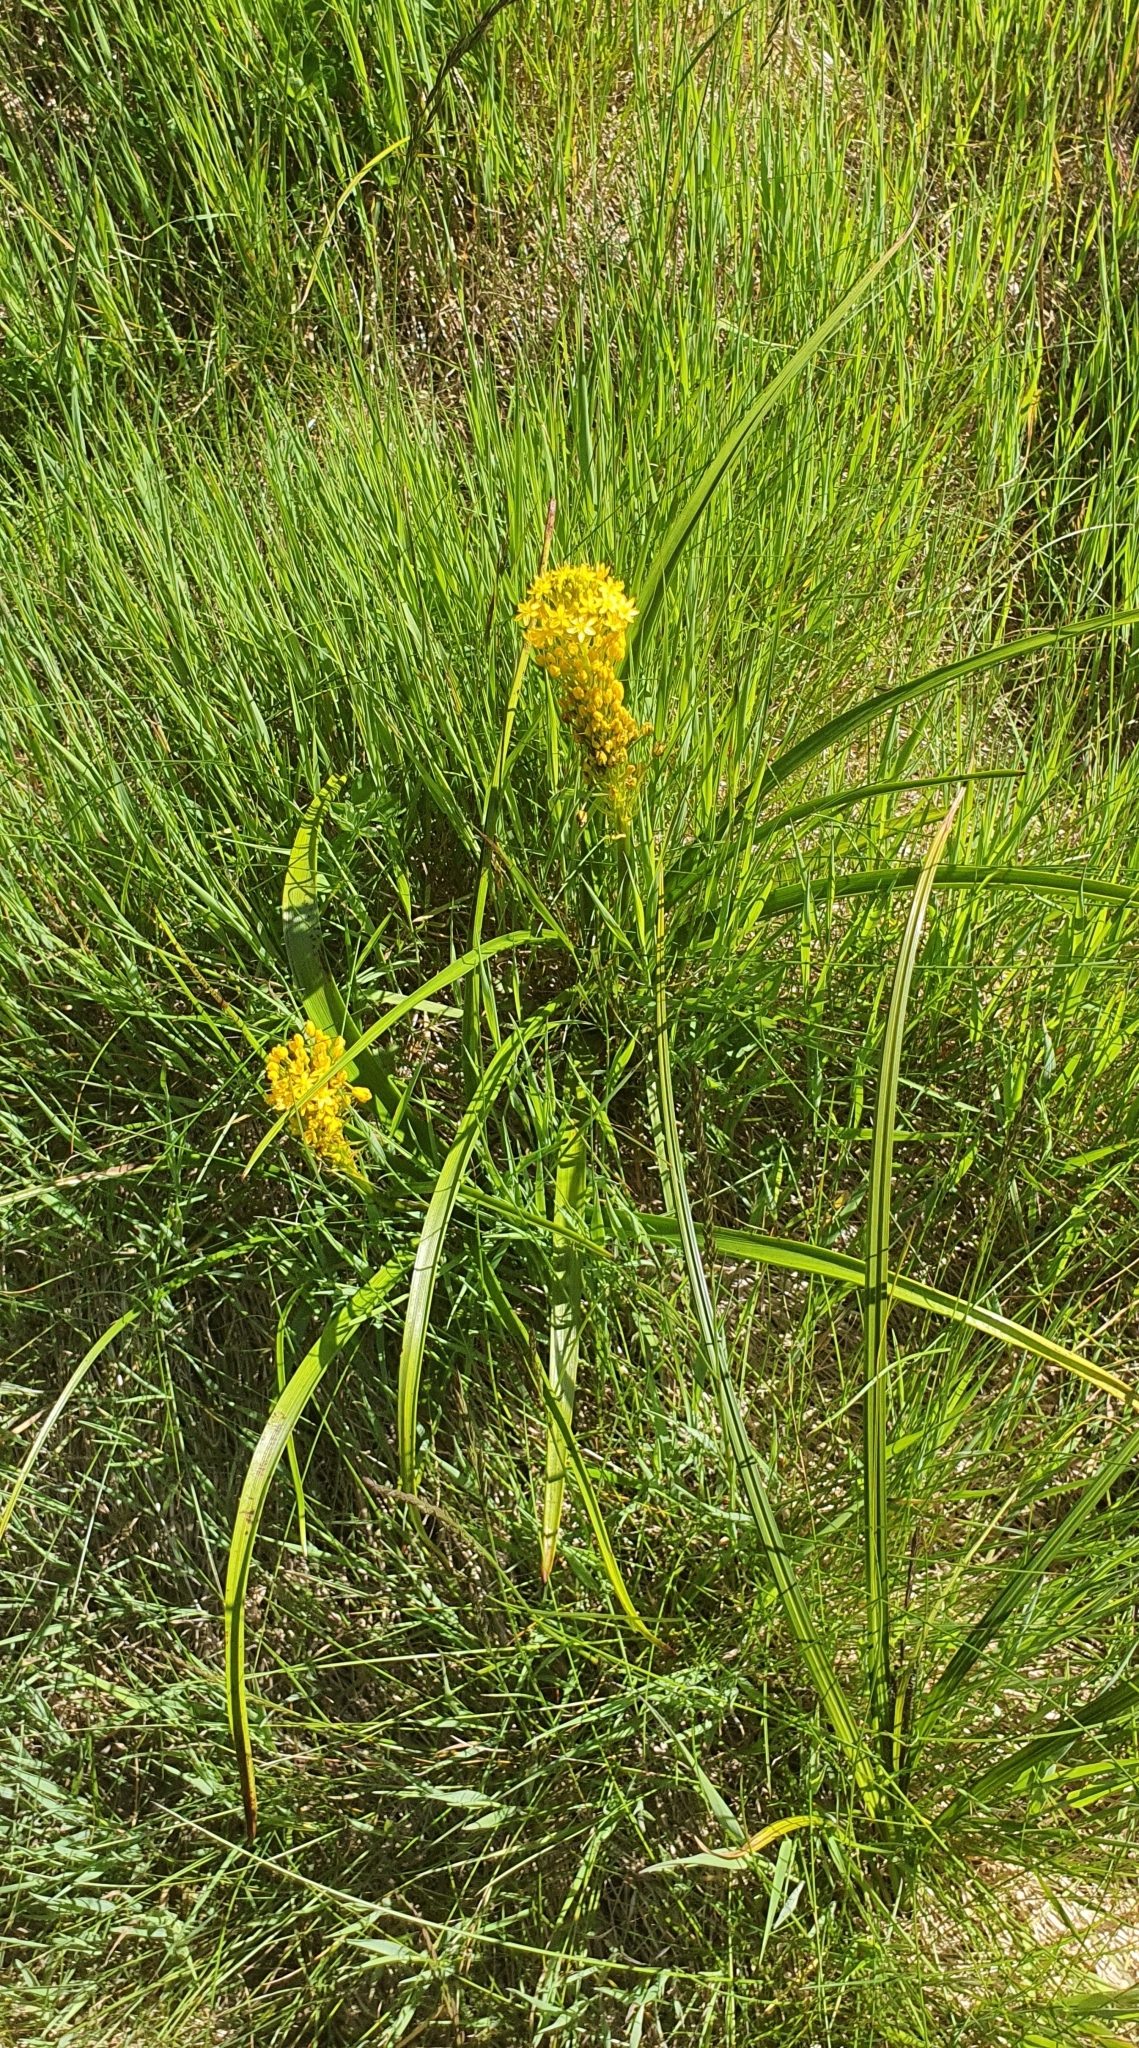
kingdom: Plantae
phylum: Tracheophyta
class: Liliopsida
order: Asparagales
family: Asphodelaceae
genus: Bulbinella
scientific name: Bulbinella angustifolia
